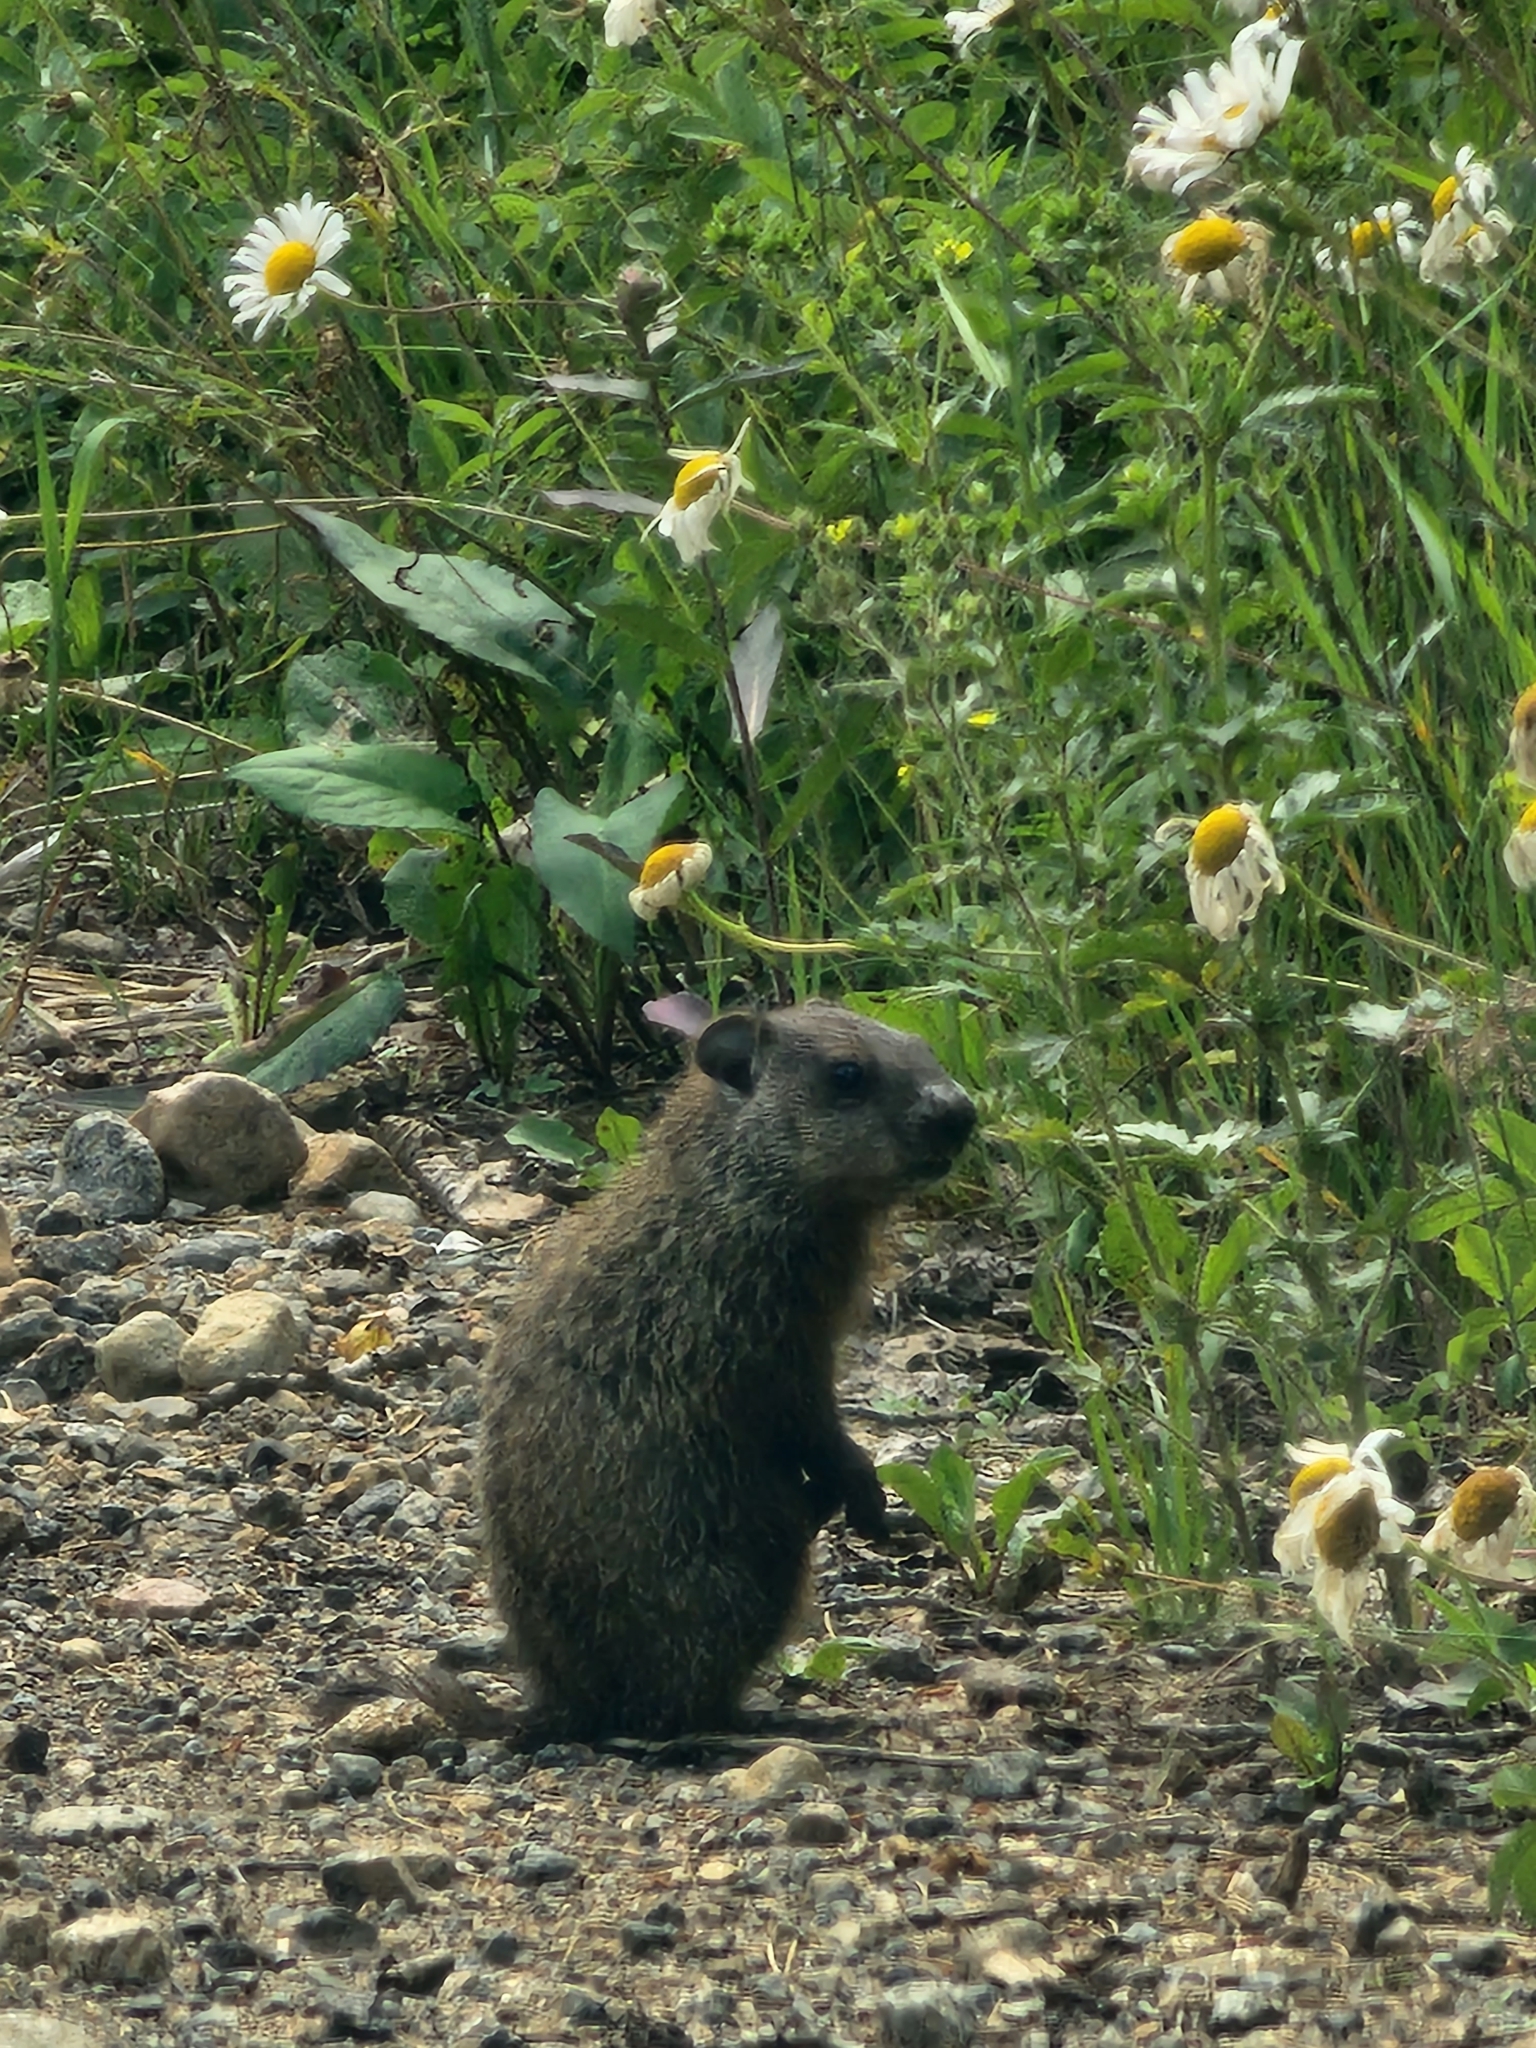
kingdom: Animalia
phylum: Chordata
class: Mammalia
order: Rodentia
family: Sciuridae
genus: Marmota
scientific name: Marmota monax
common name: Groundhog
